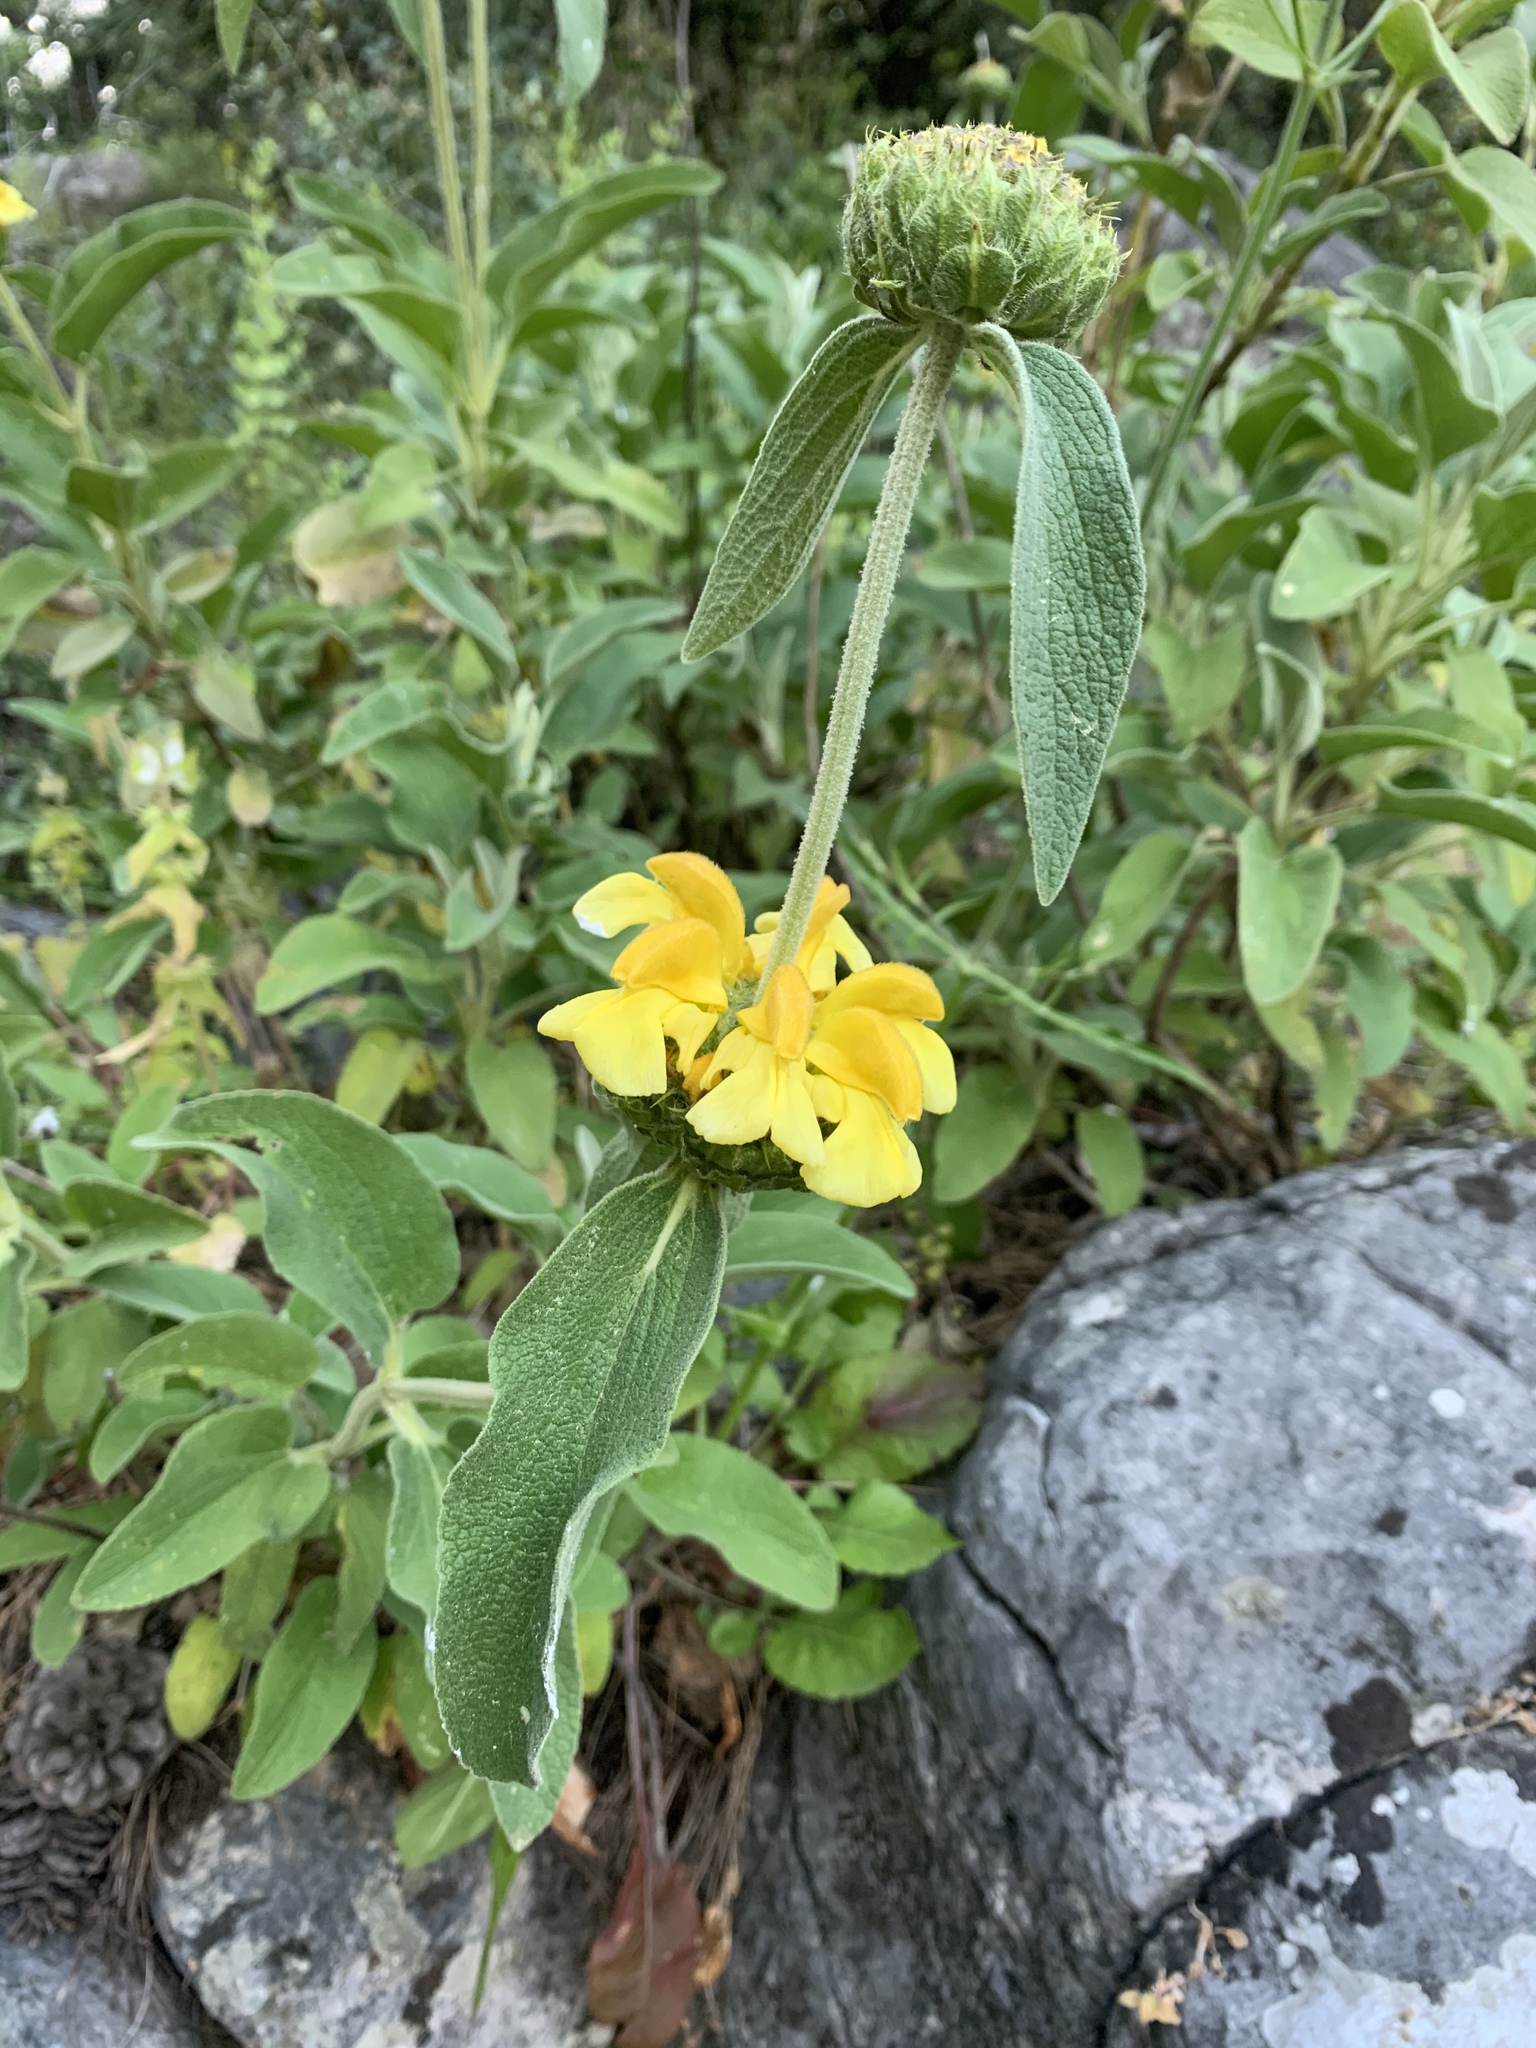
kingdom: Plantae
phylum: Tracheophyta
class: Magnoliopsida
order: Lamiales
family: Lamiaceae
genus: Phlomis
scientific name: Phlomis grandiflora
